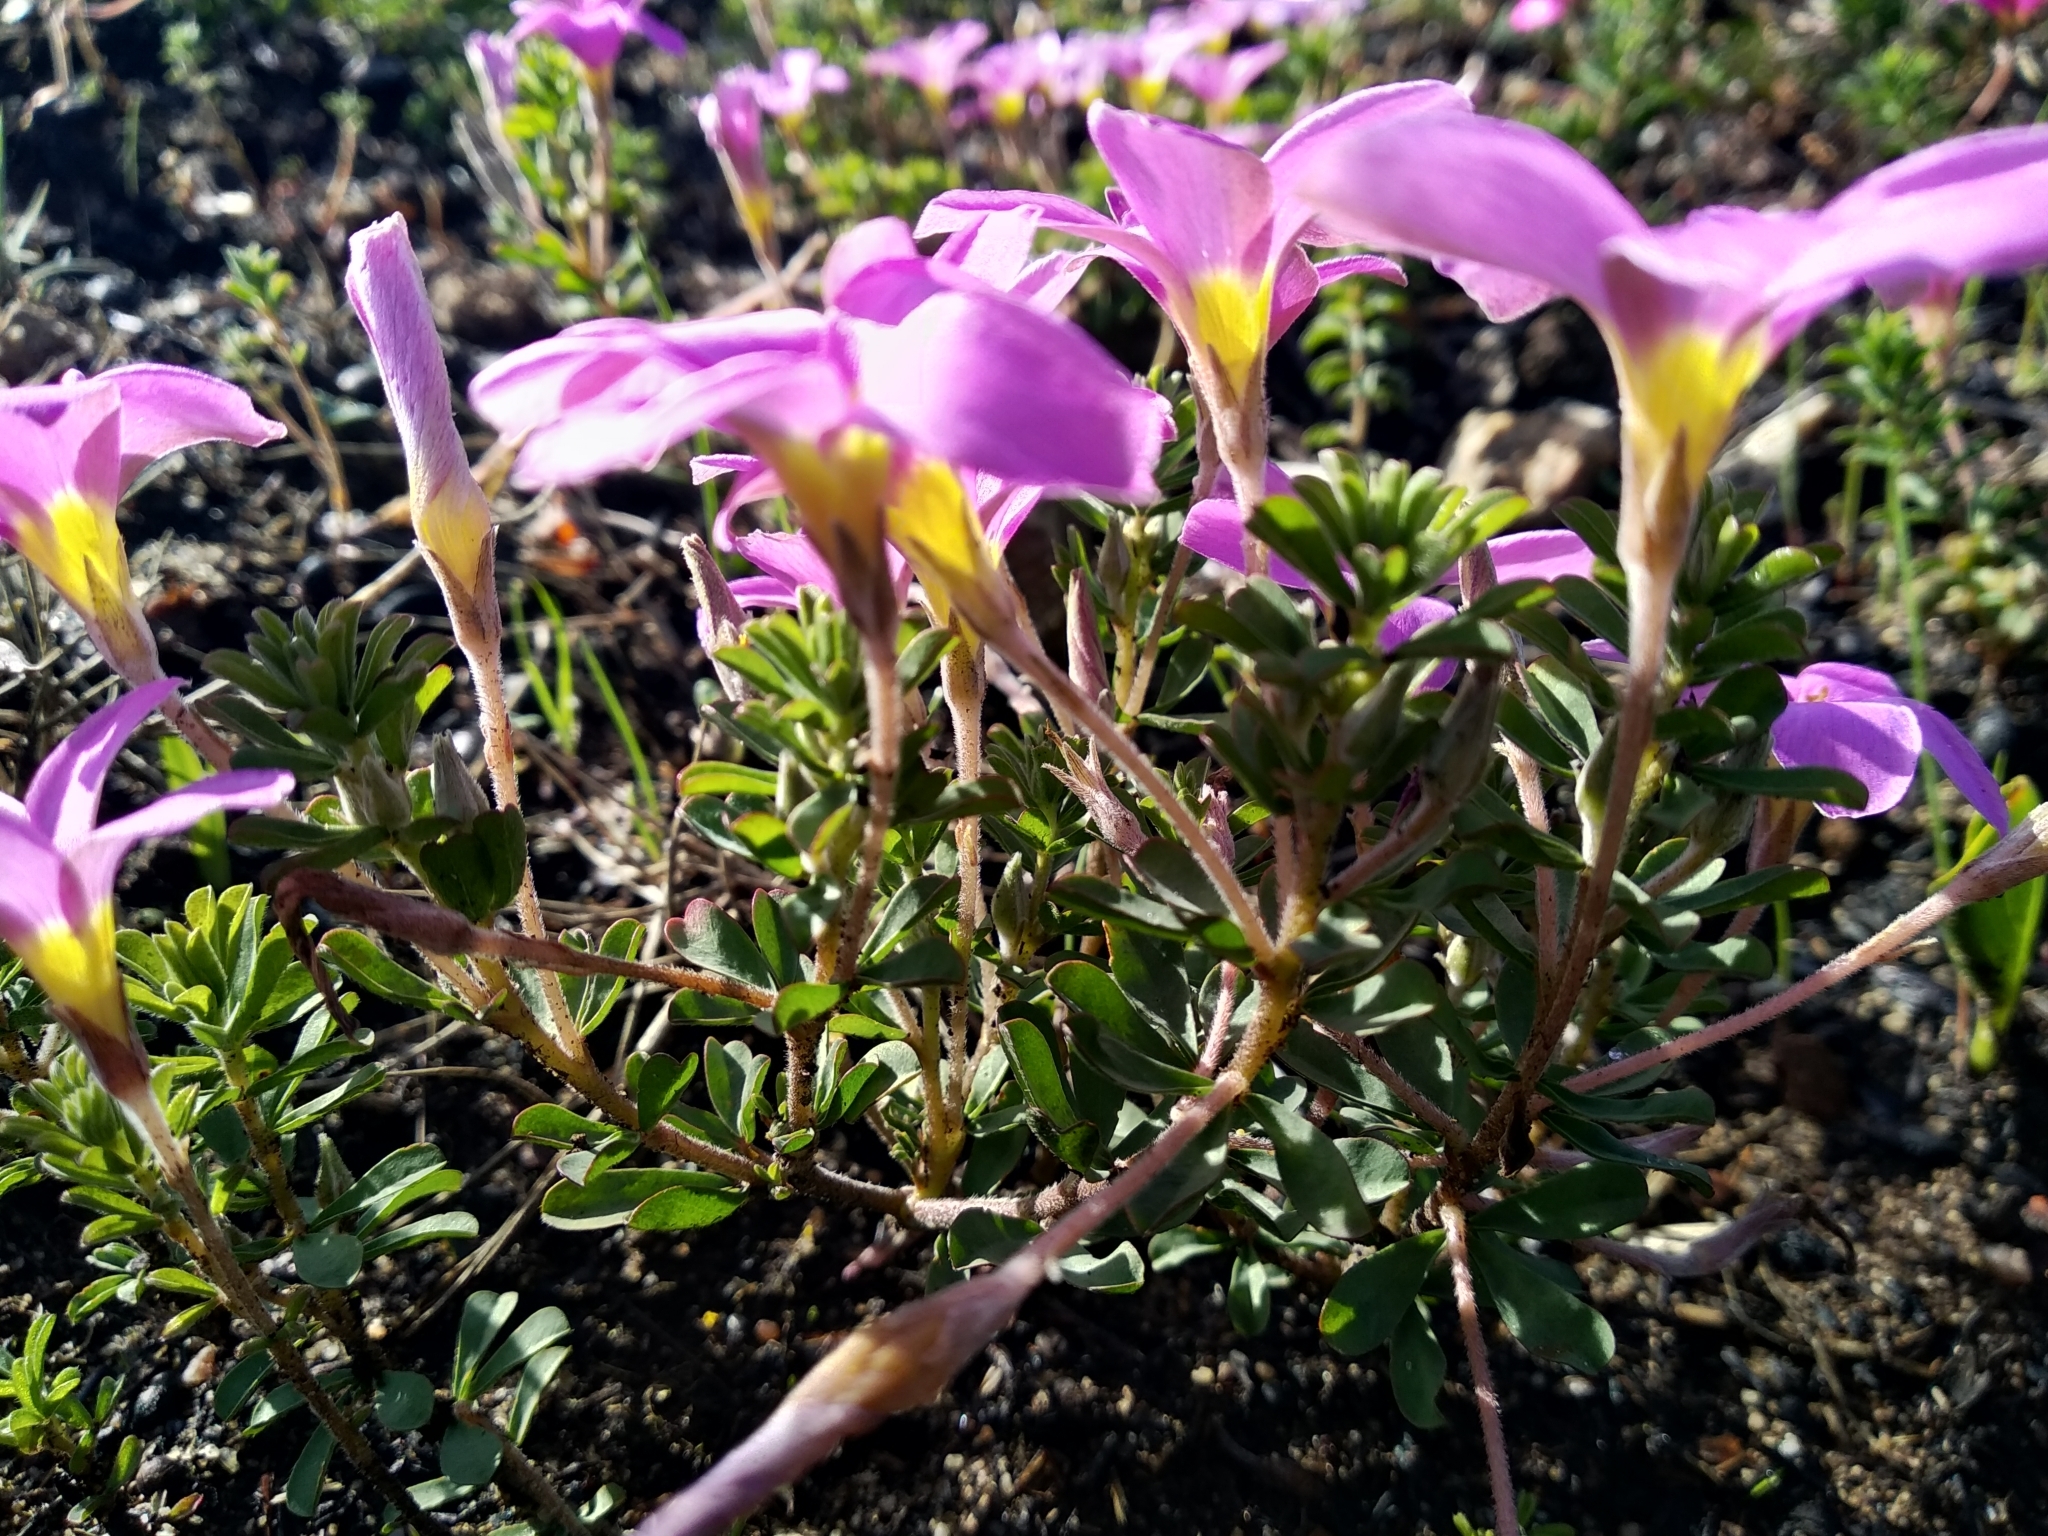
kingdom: Plantae
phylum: Tracheophyta
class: Magnoliopsida
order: Oxalidales
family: Oxalidaceae
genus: Oxalis
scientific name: Oxalis hirta
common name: Tropical woodsorrel
